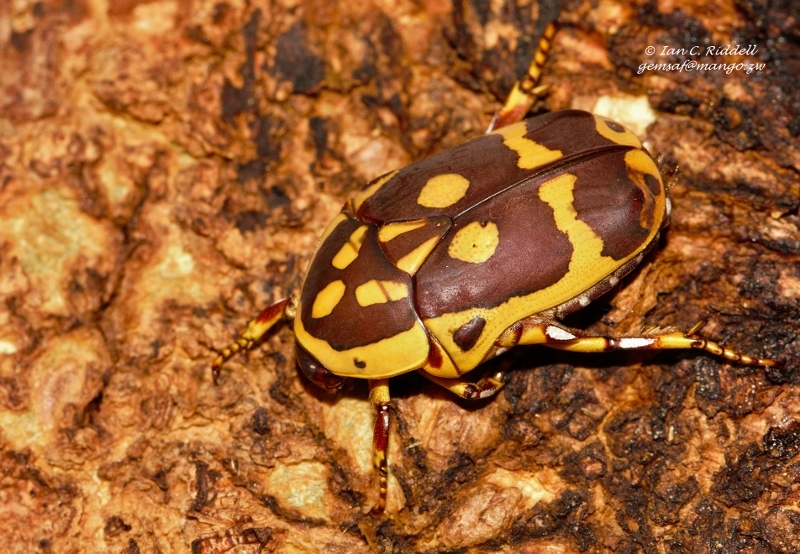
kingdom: Animalia
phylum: Arthropoda
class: Insecta
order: Coleoptera
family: Scarabaeidae
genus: Pachnoda
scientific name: Pachnoda fissipuncta
